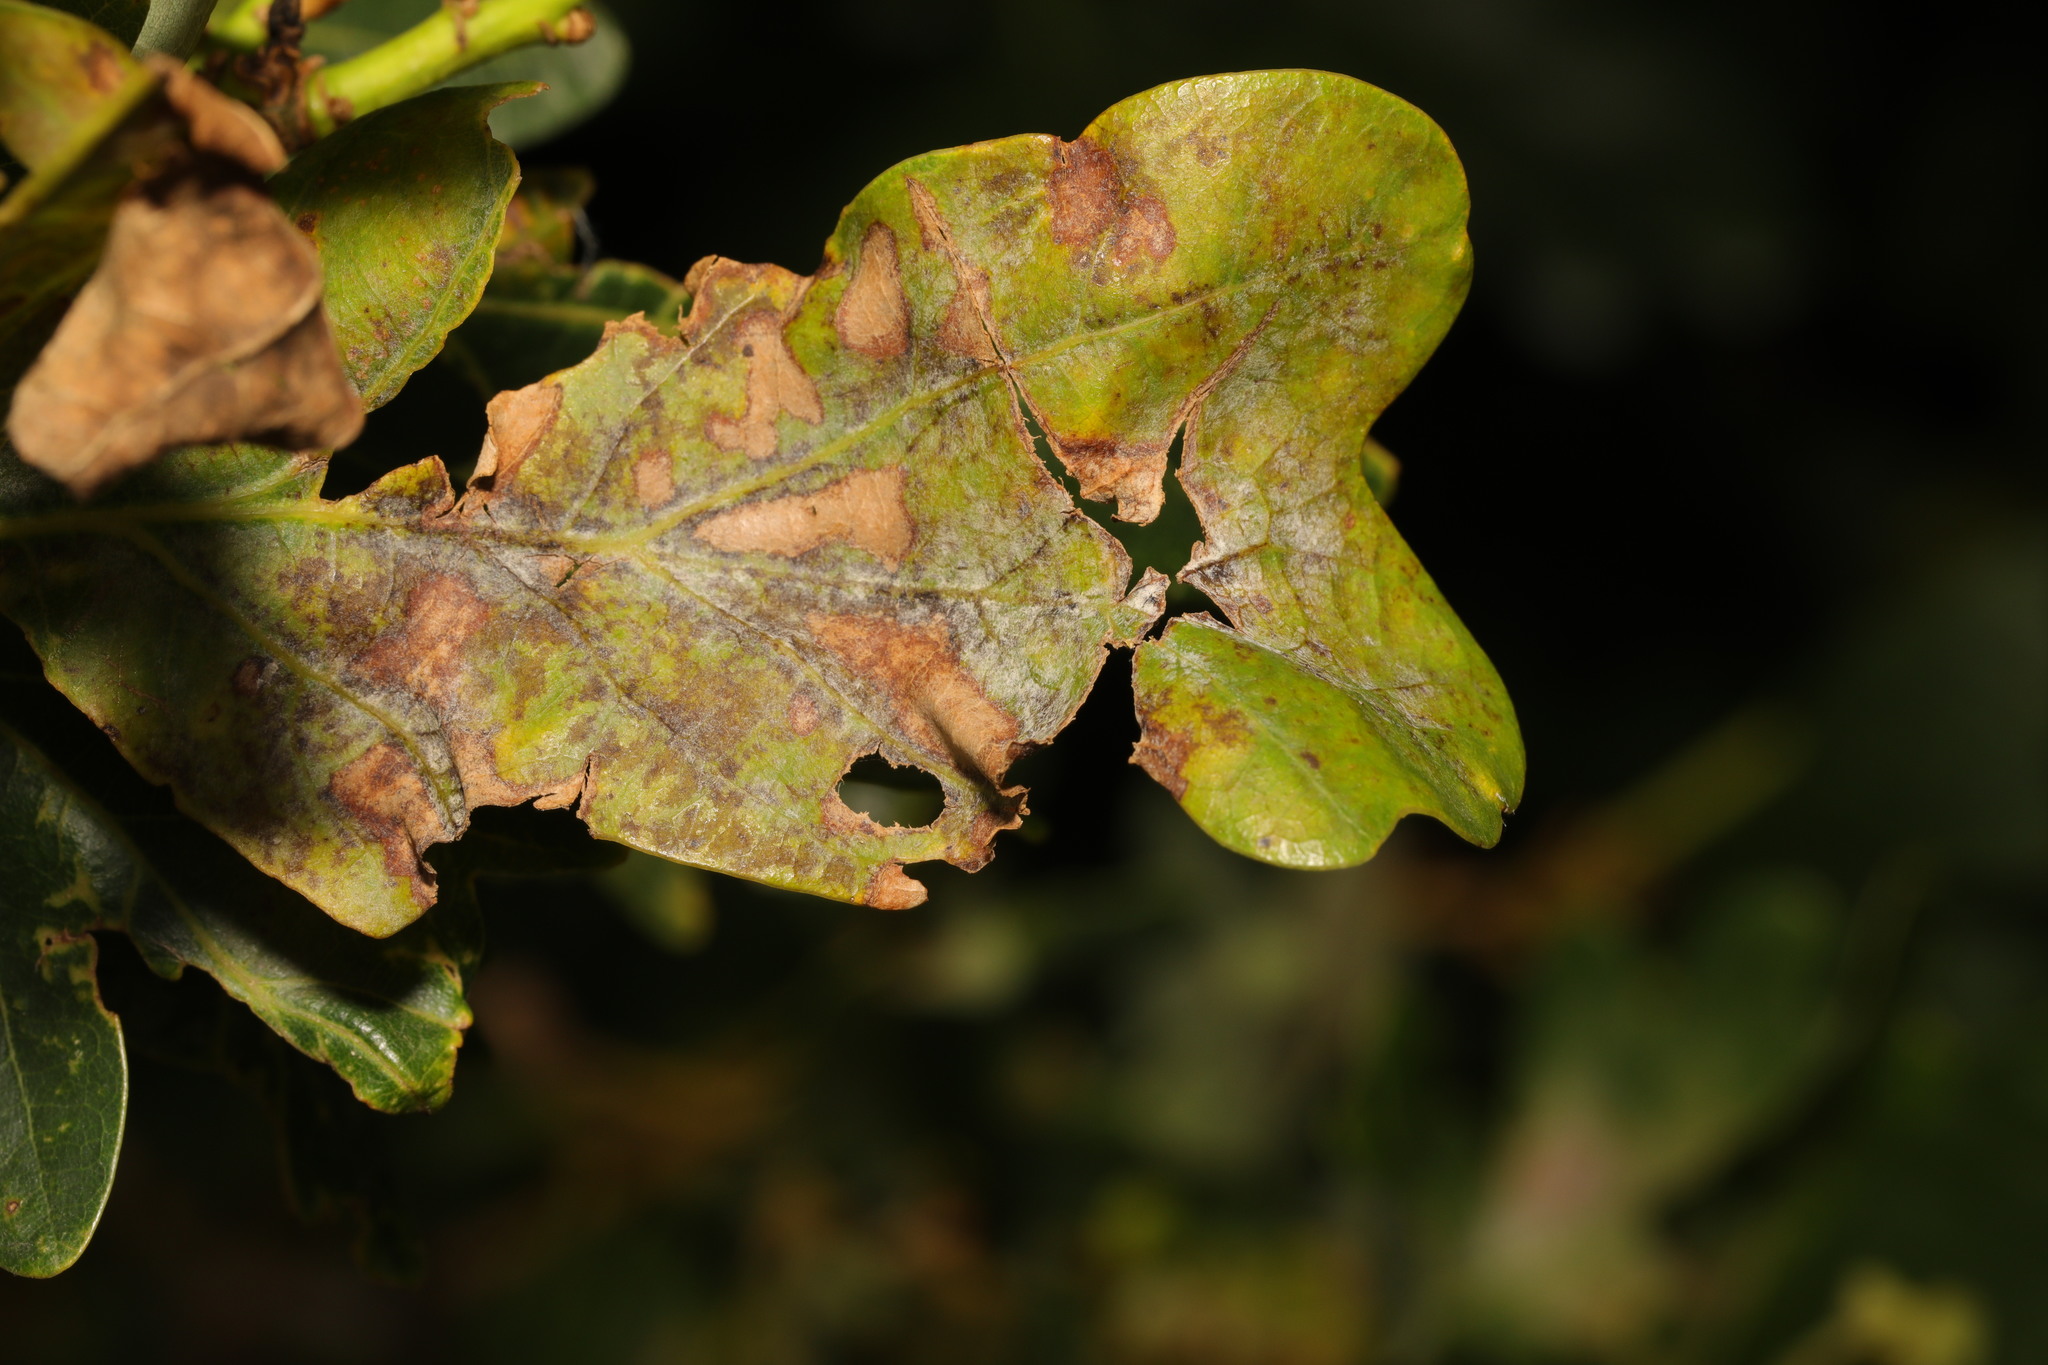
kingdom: Fungi
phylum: Ascomycota
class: Leotiomycetes
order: Helotiales
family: Erysiphaceae
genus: Erysiphe
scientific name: Erysiphe alphitoides
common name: Oak mildew
